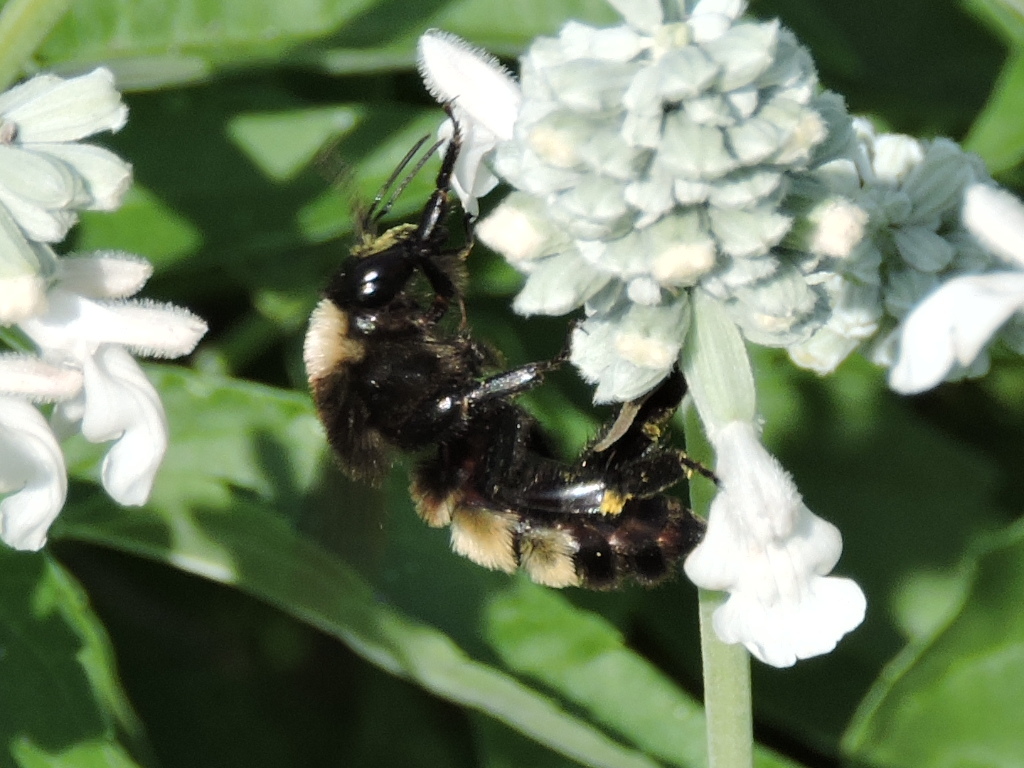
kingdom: Animalia
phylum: Arthropoda
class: Insecta
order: Hymenoptera
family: Apidae
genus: Bombus
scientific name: Bombus pensylvanicus
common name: Bumble bee
